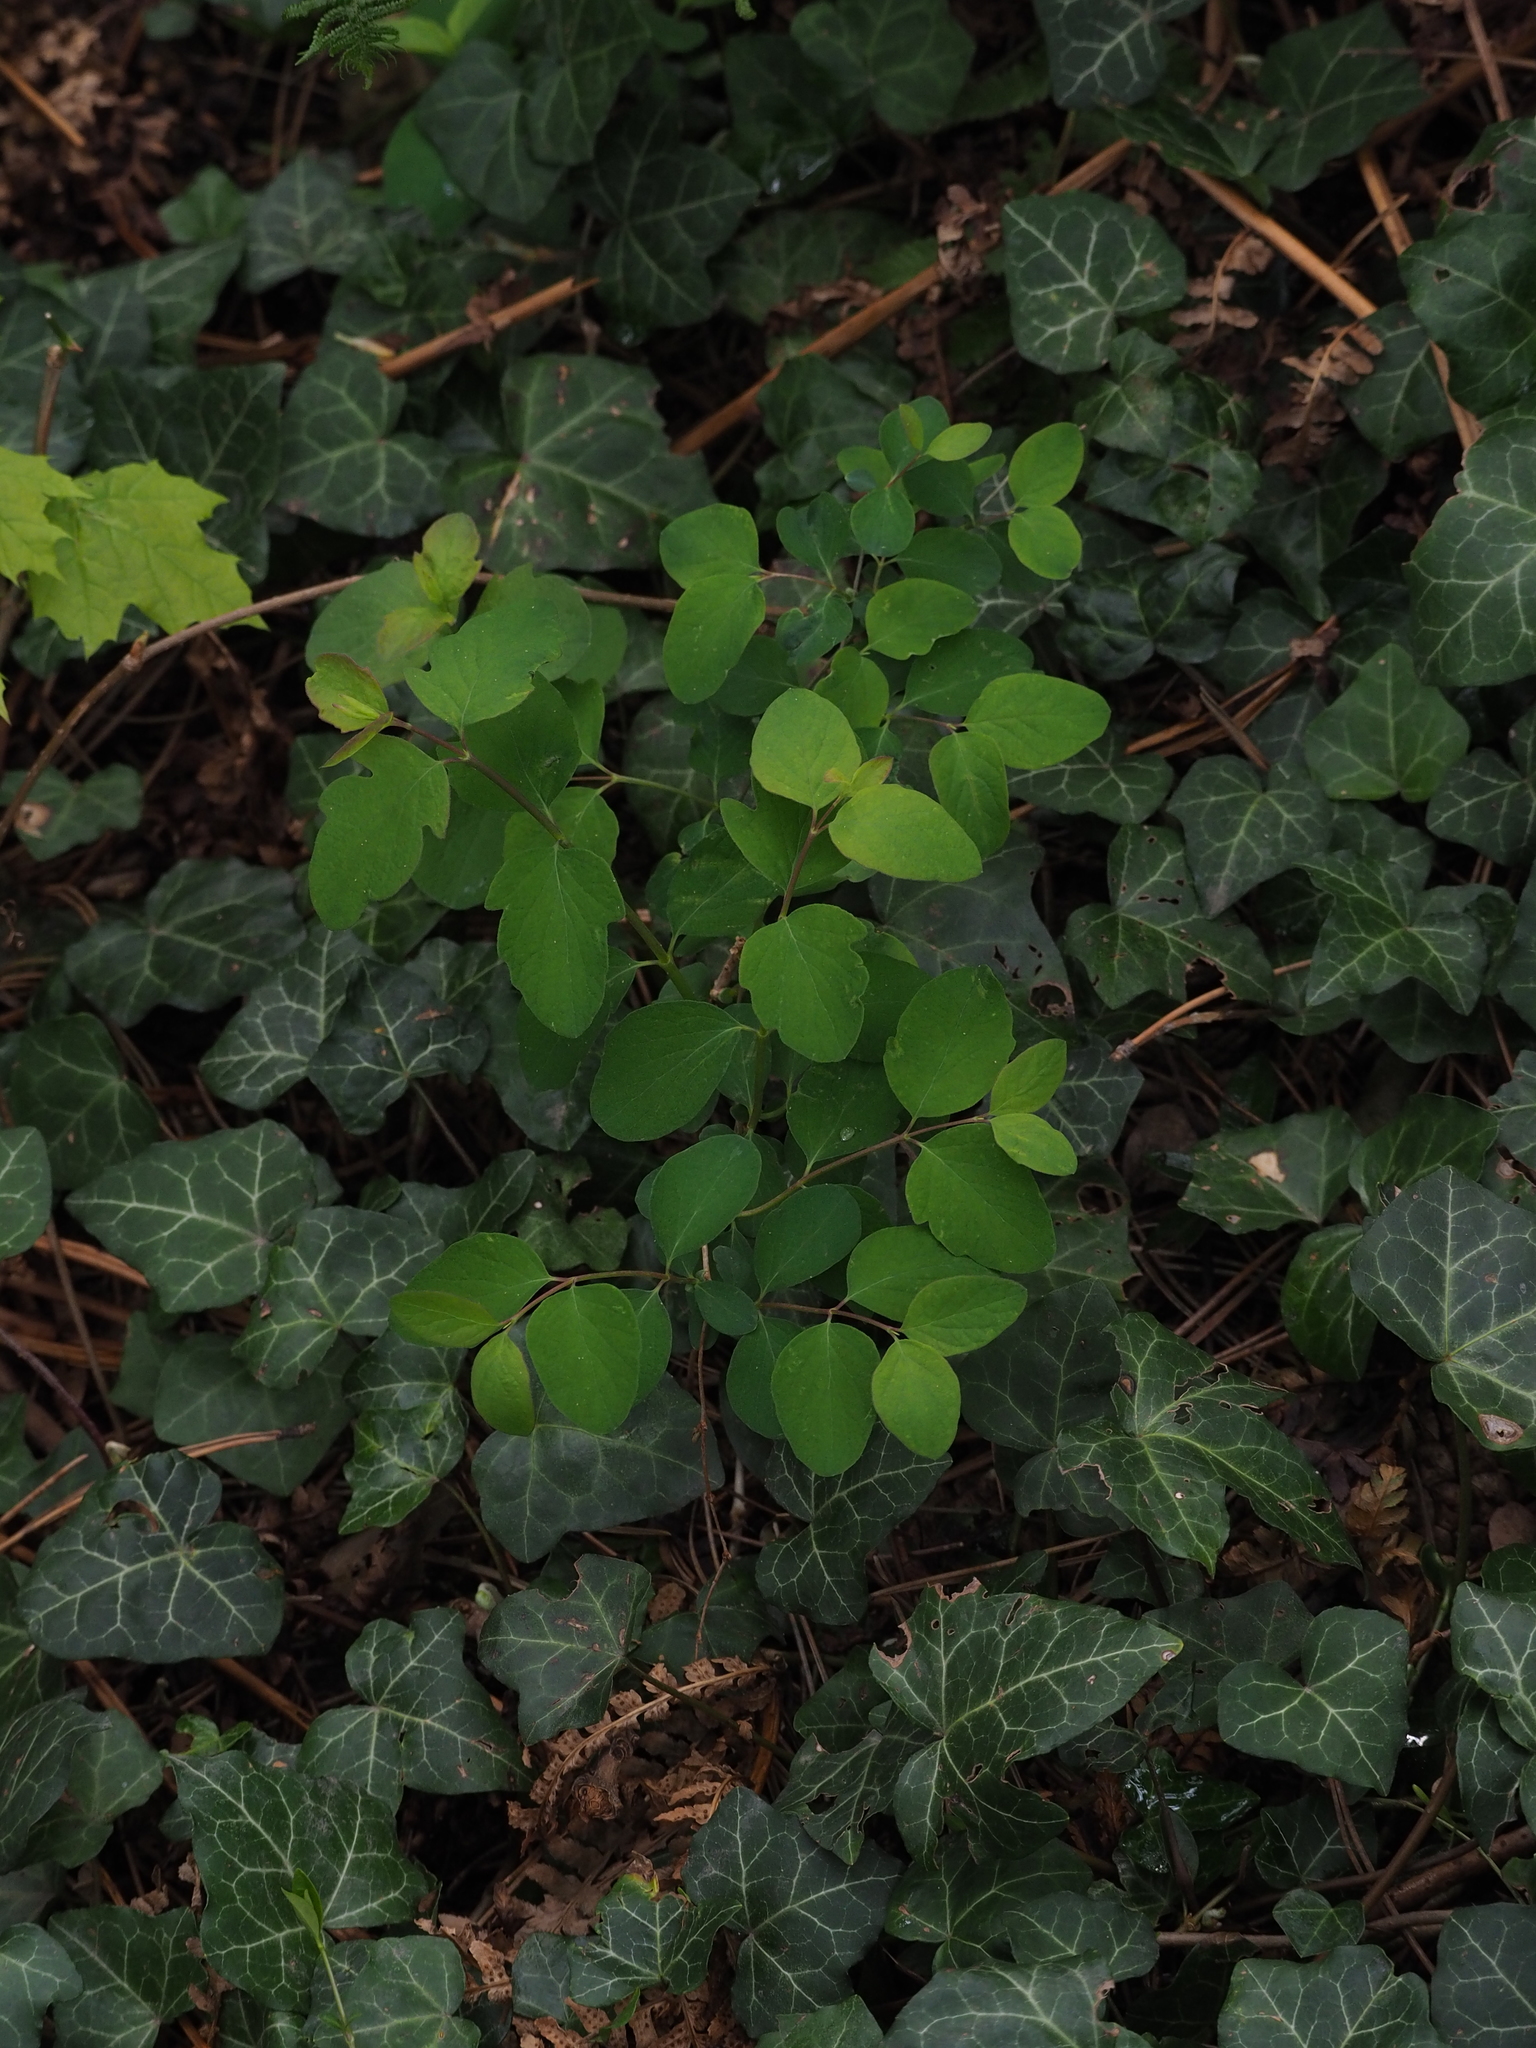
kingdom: Plantae
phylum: Tracheophyta
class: Magnoliopsida
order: Dipsacales
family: Caprifoliaceae
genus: Symphoricarpos
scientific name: Symphoricarpos albus
